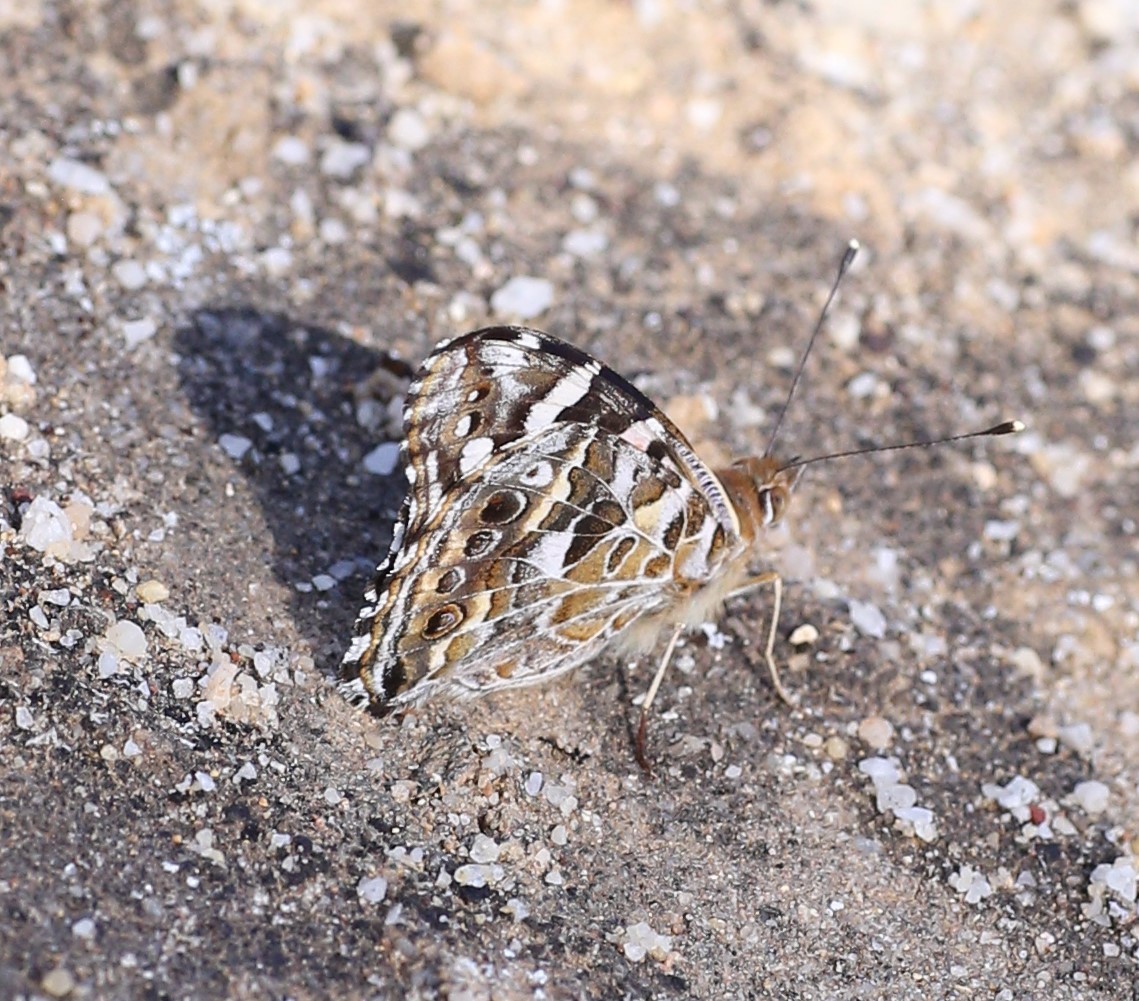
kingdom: Animalia
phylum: Arthropoda
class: Insecta
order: Lepidoptera
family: Nymphalidae
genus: Vanessa
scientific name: Vanessa kershawi
